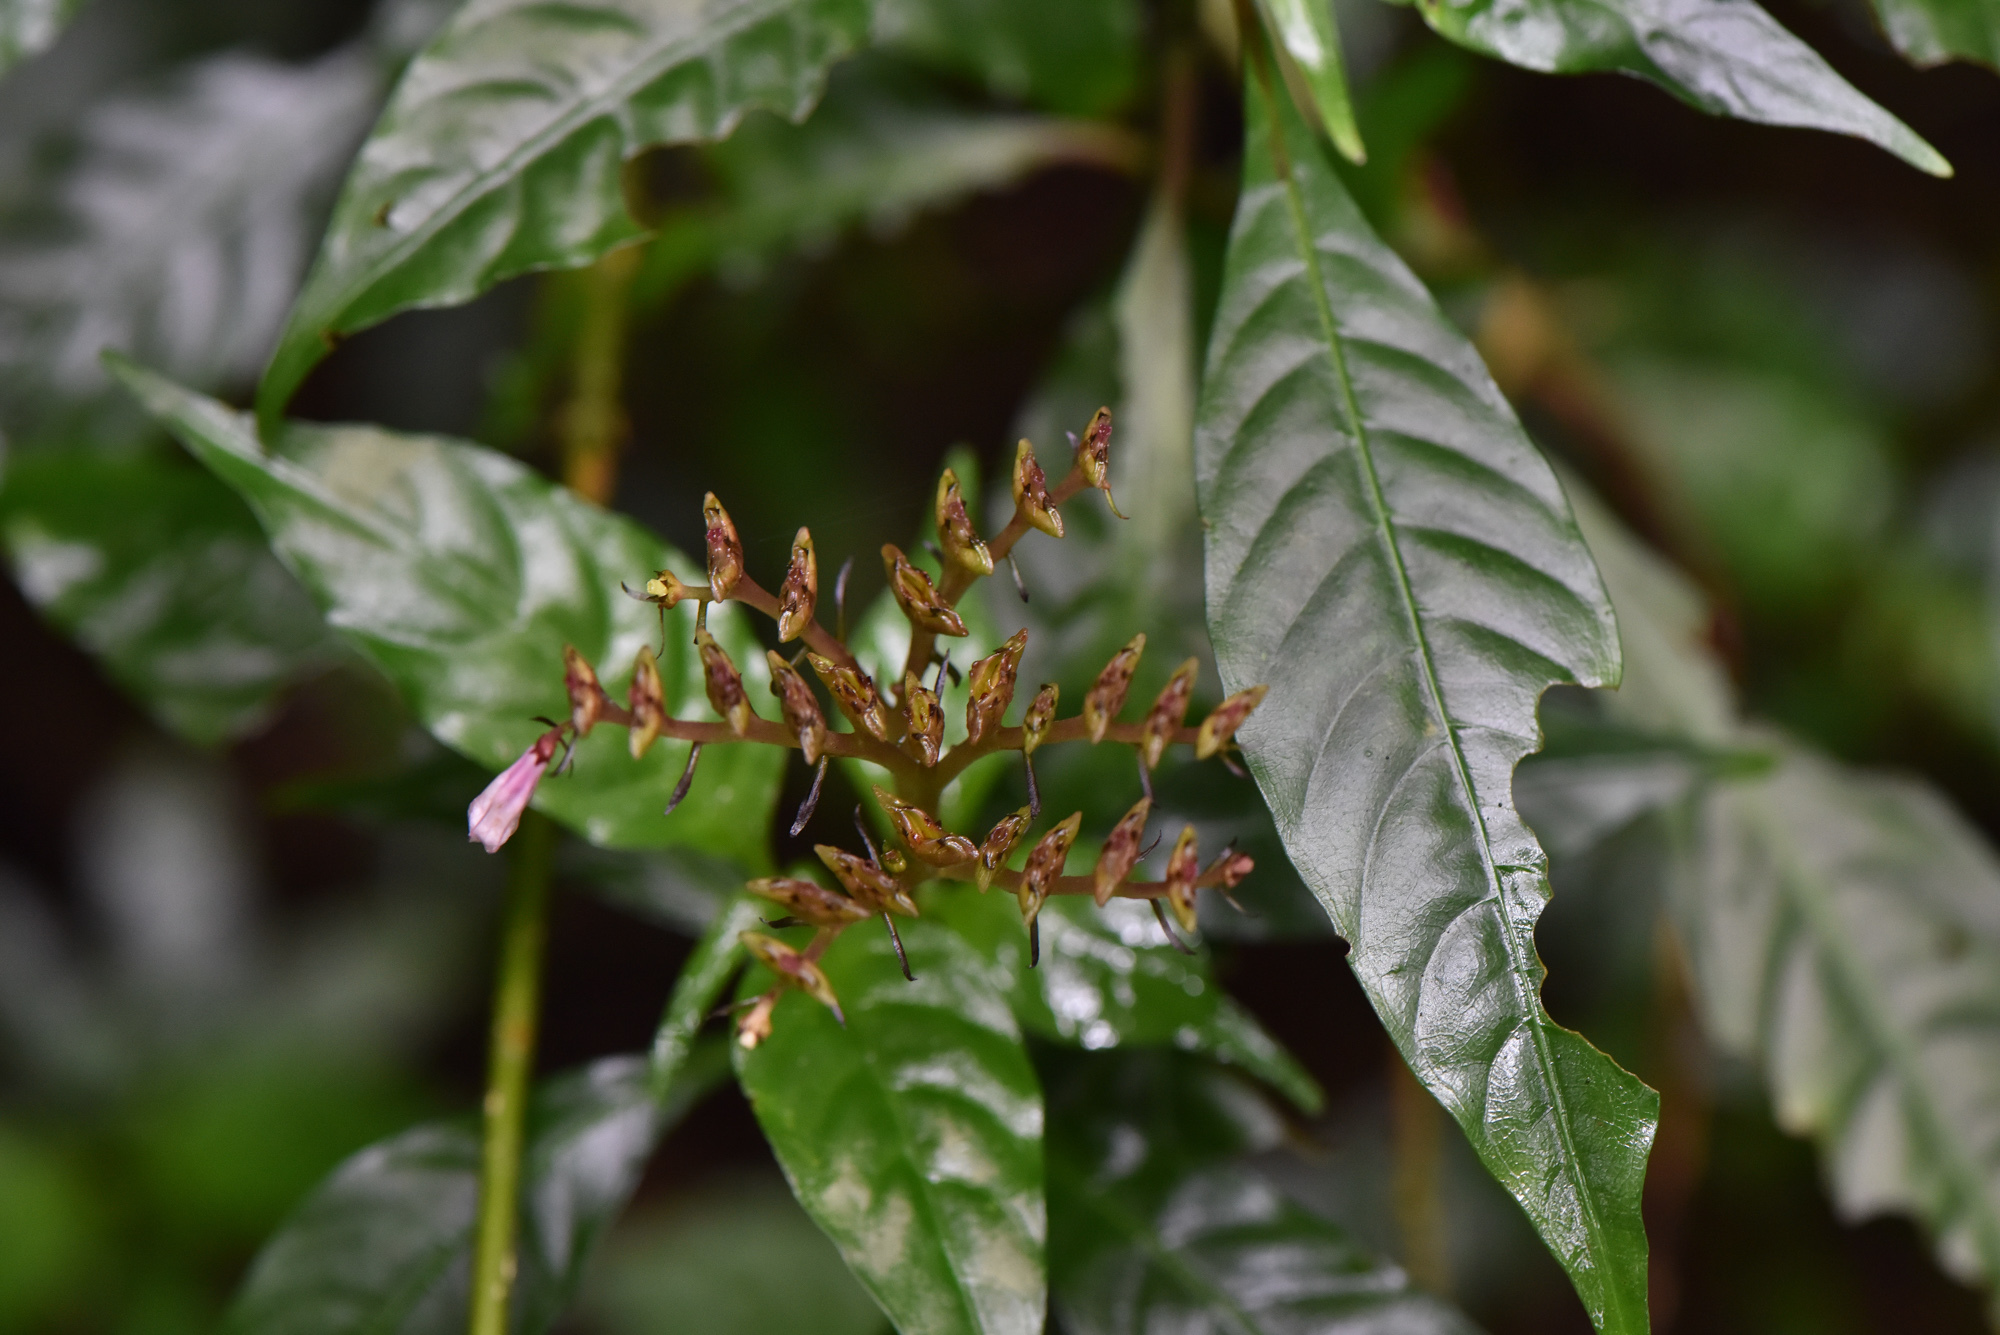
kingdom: Plantae
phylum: Tracheophyta
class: Magnoliopsida
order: Gentianales
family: Rubiaceae
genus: Ophiorrhiza
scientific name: Ophiorrhiza japonica
